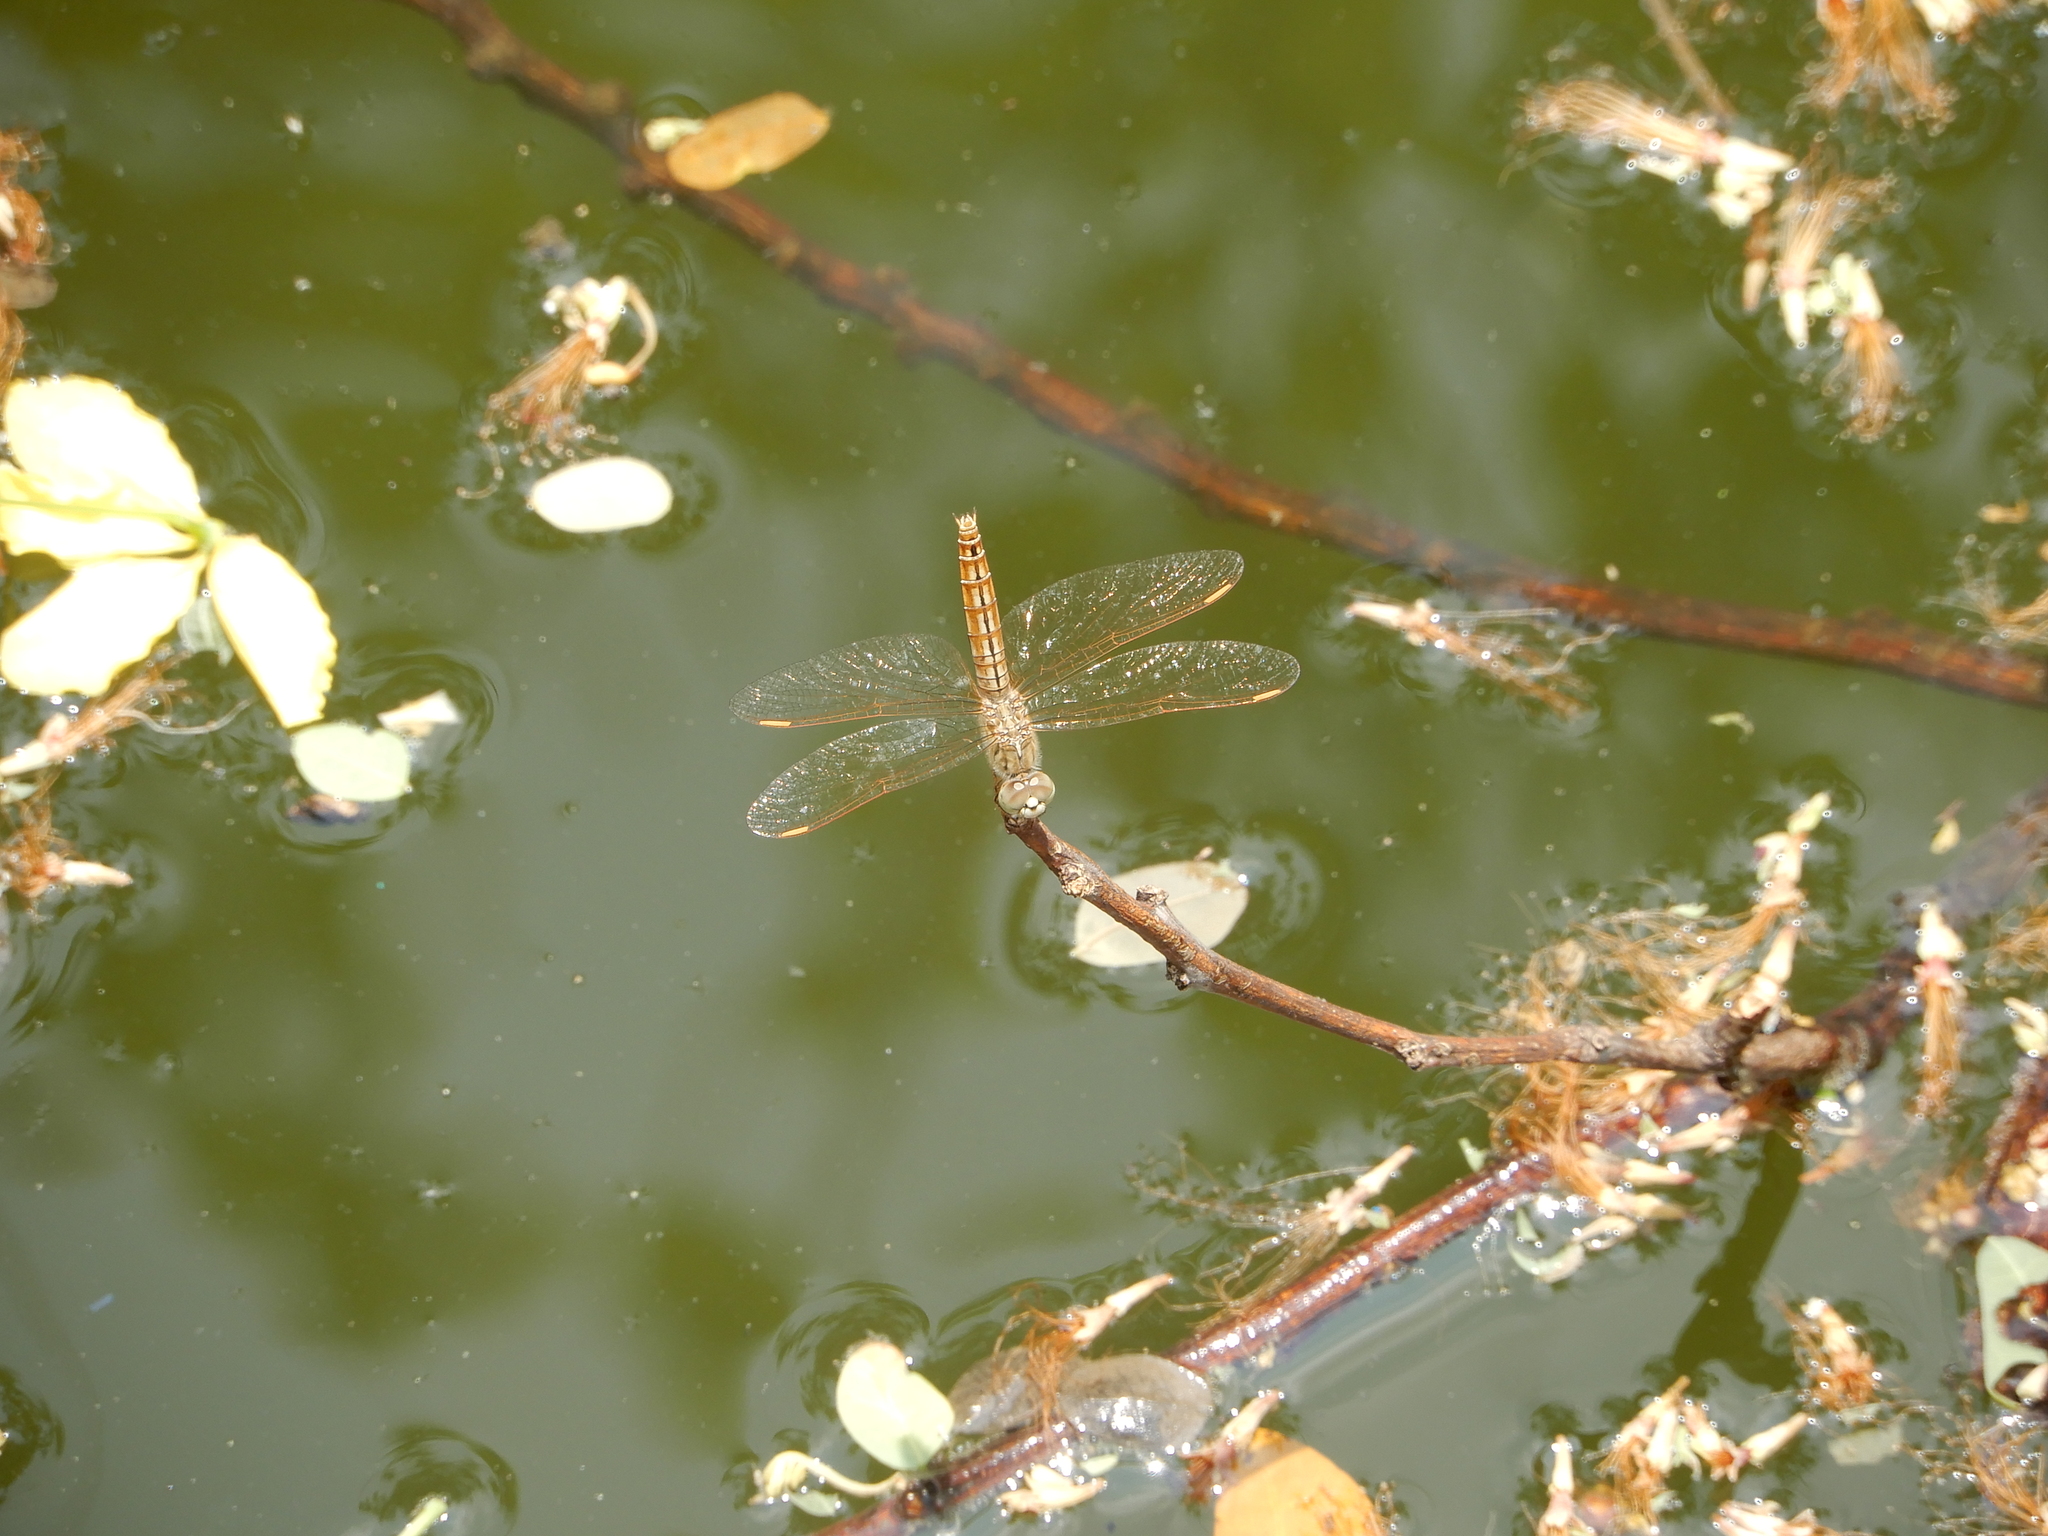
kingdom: Animalia
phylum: Arthropoda
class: Insecta
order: Odonata
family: Libellulidae
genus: Brachythemis
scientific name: Brachythemis contaminata
